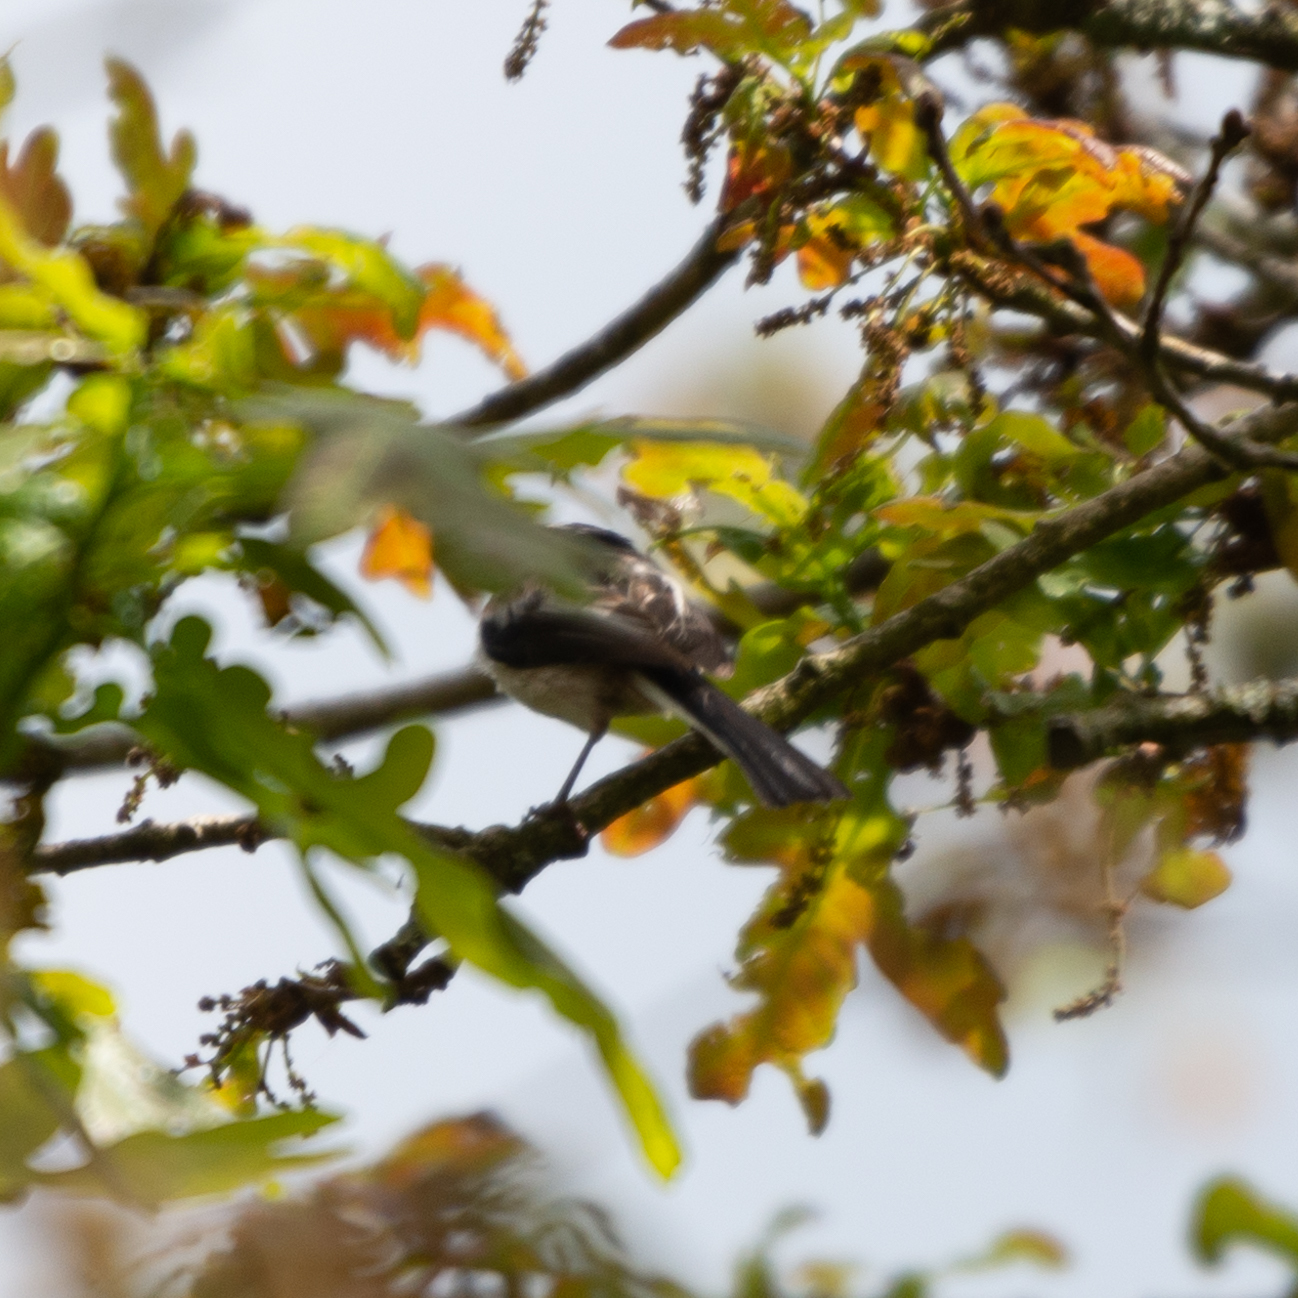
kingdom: Animalia
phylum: Chordata
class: Aves
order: Passeriformes
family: Aegithalidae
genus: Aegithalos
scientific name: Aegithalos caudatus
